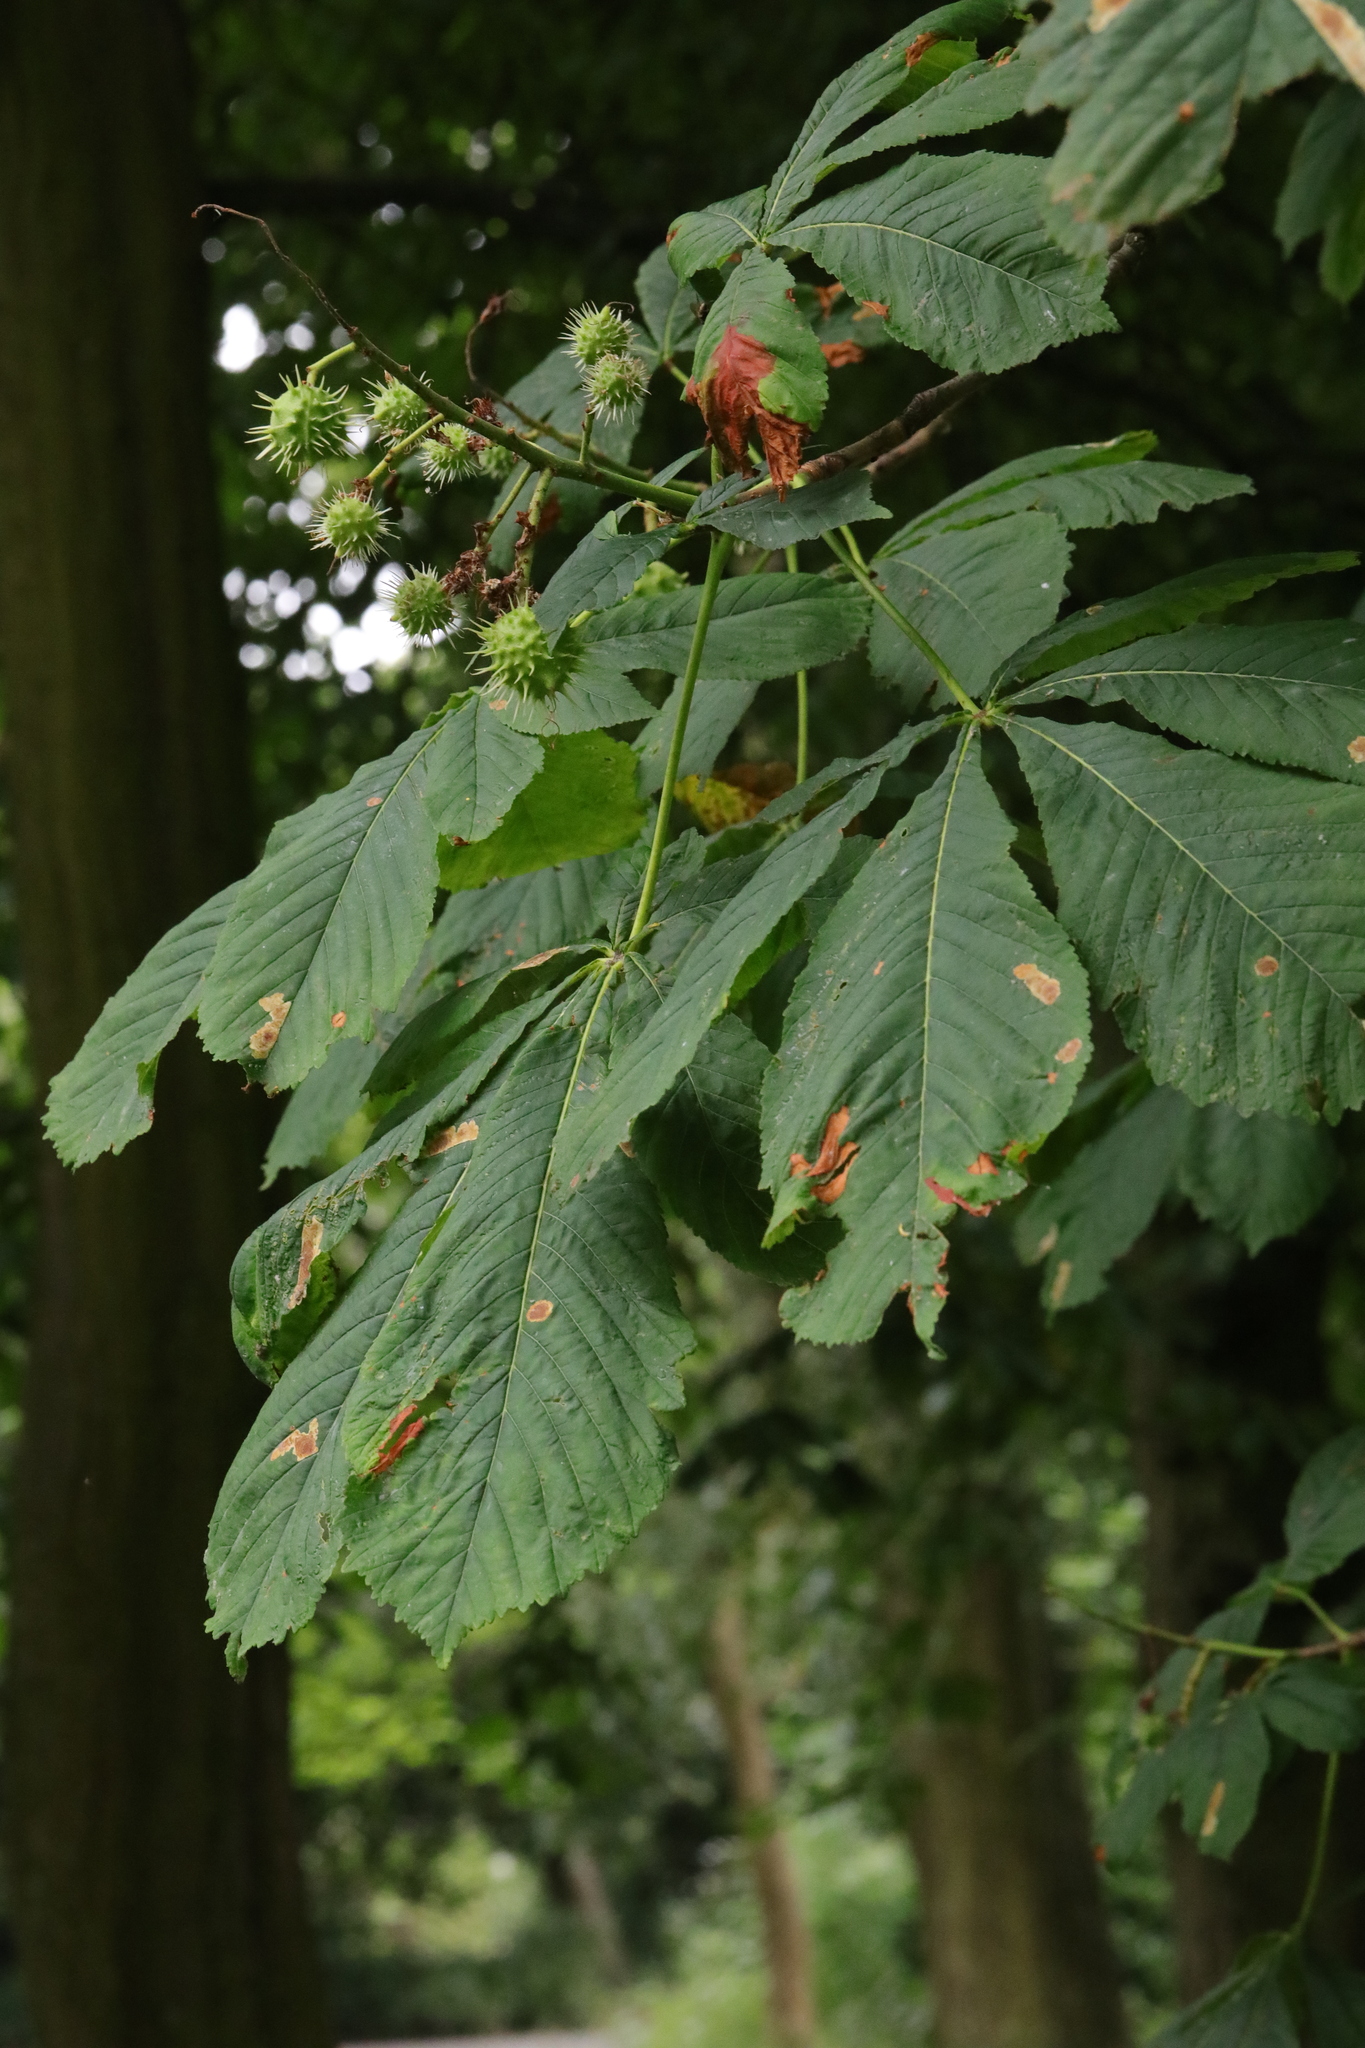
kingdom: Plantae
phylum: Tracheophyta
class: Magnoliopsida
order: Sapindales
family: Sapindaceae
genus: Aesculus
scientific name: Aesculus hippocastanum
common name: Horse-chestnut
